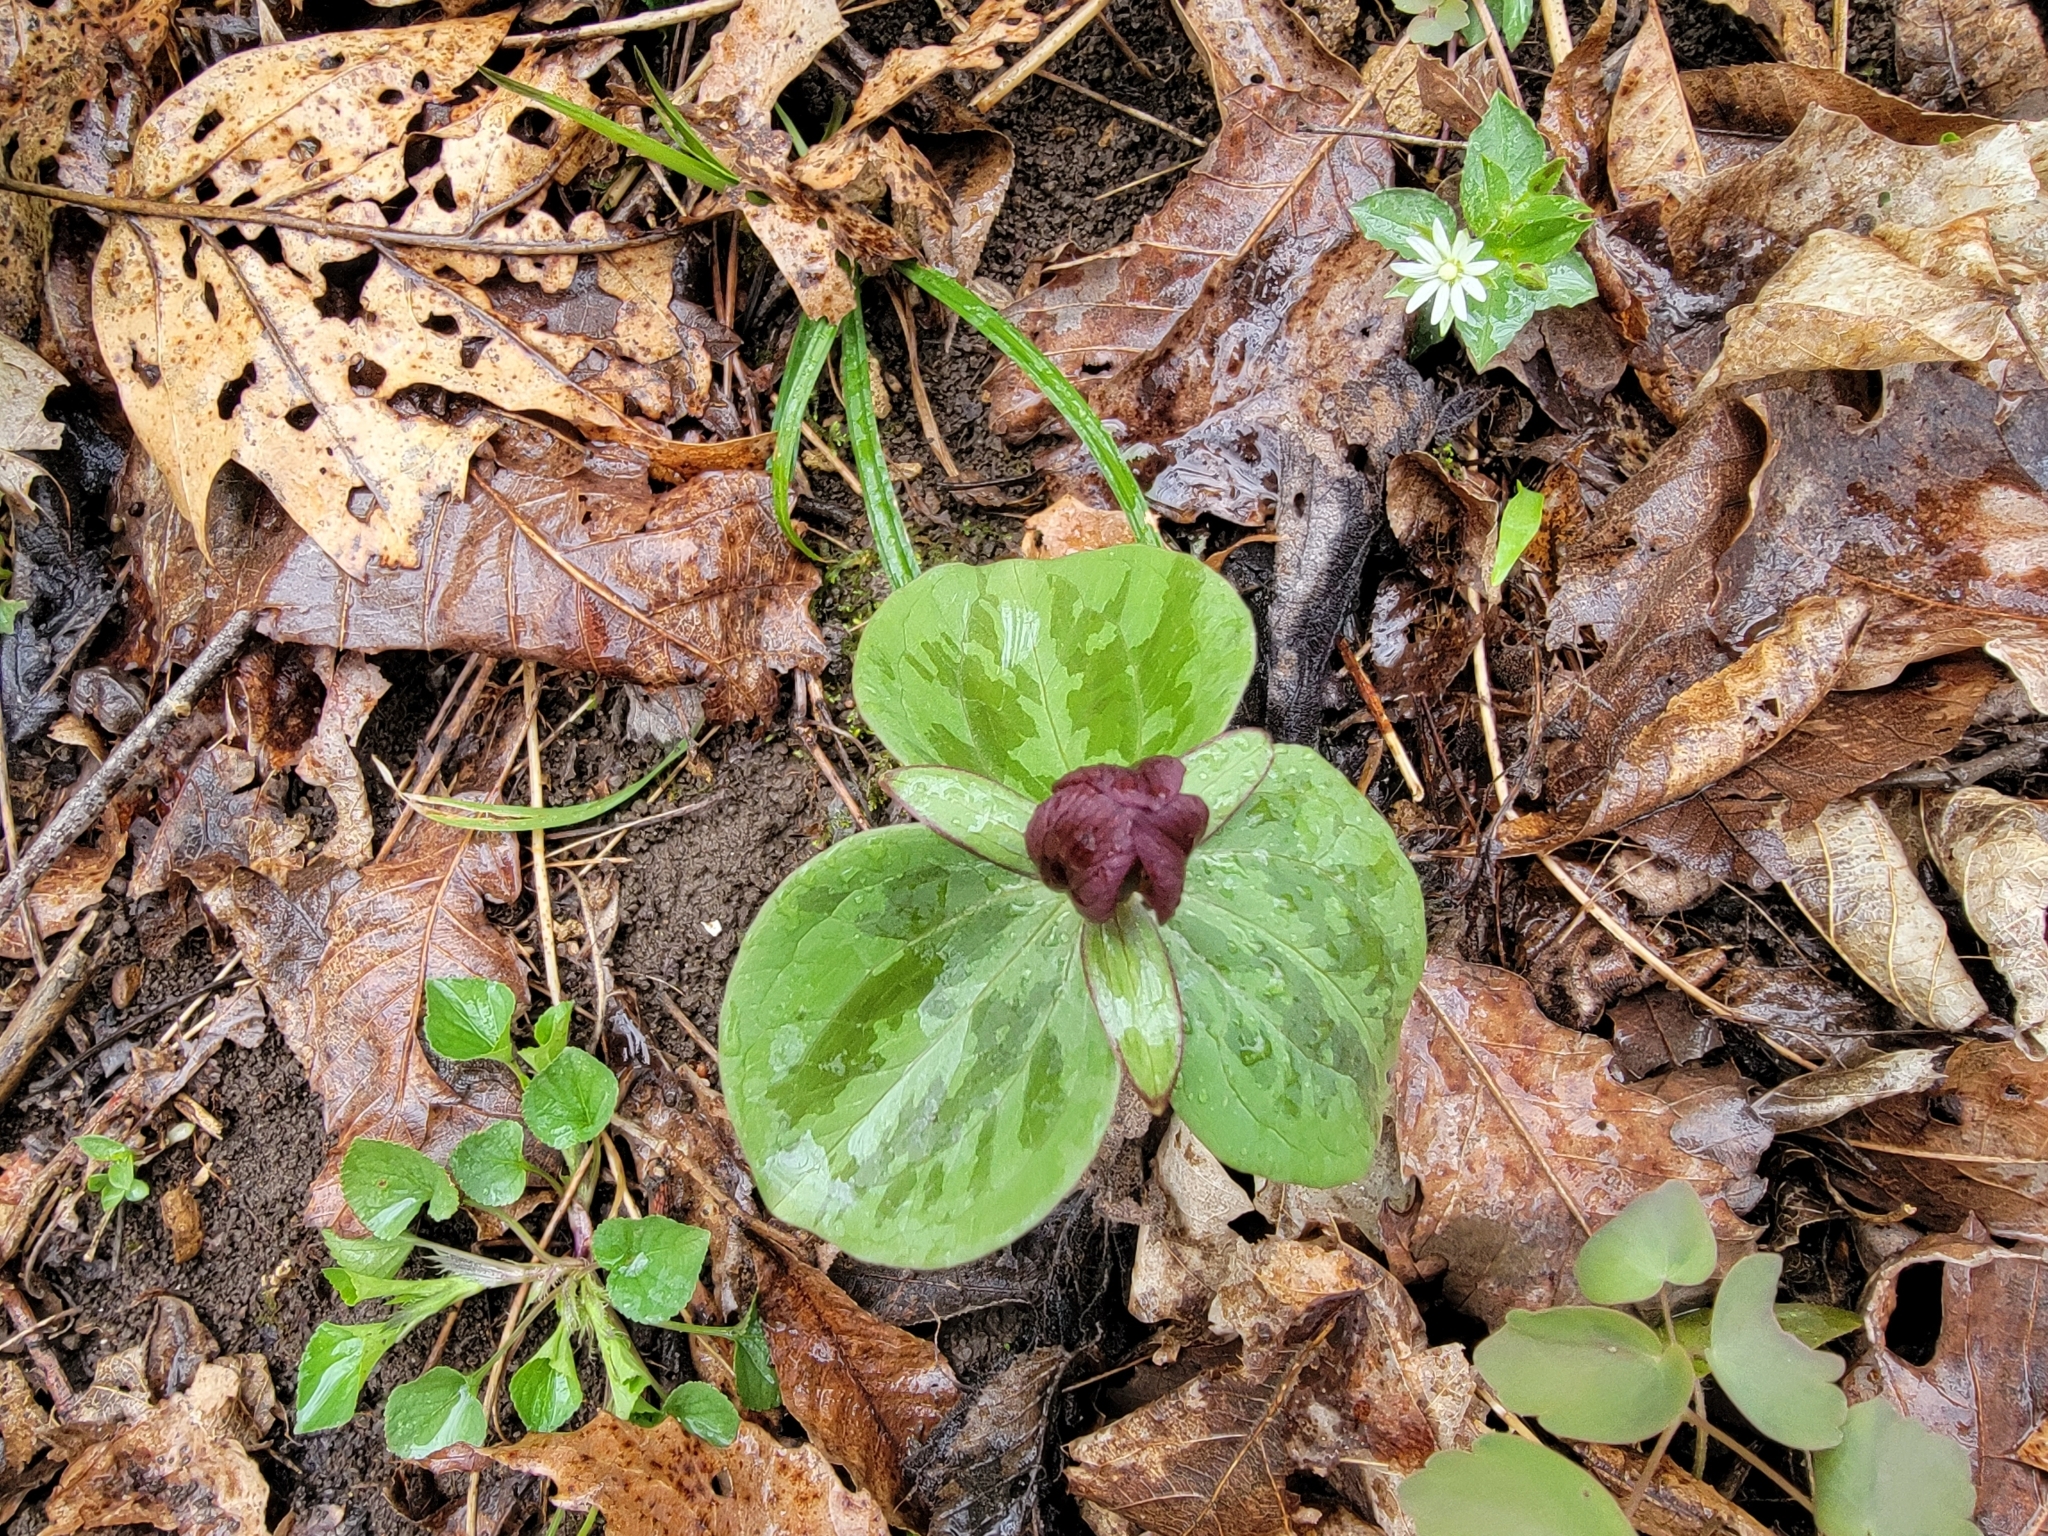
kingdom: Plantae
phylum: Tracheophyta
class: Liliopsida
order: Liliales
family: Melanthiaceae
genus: Trillium
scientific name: Trillium sessile
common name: Sessile trillium
